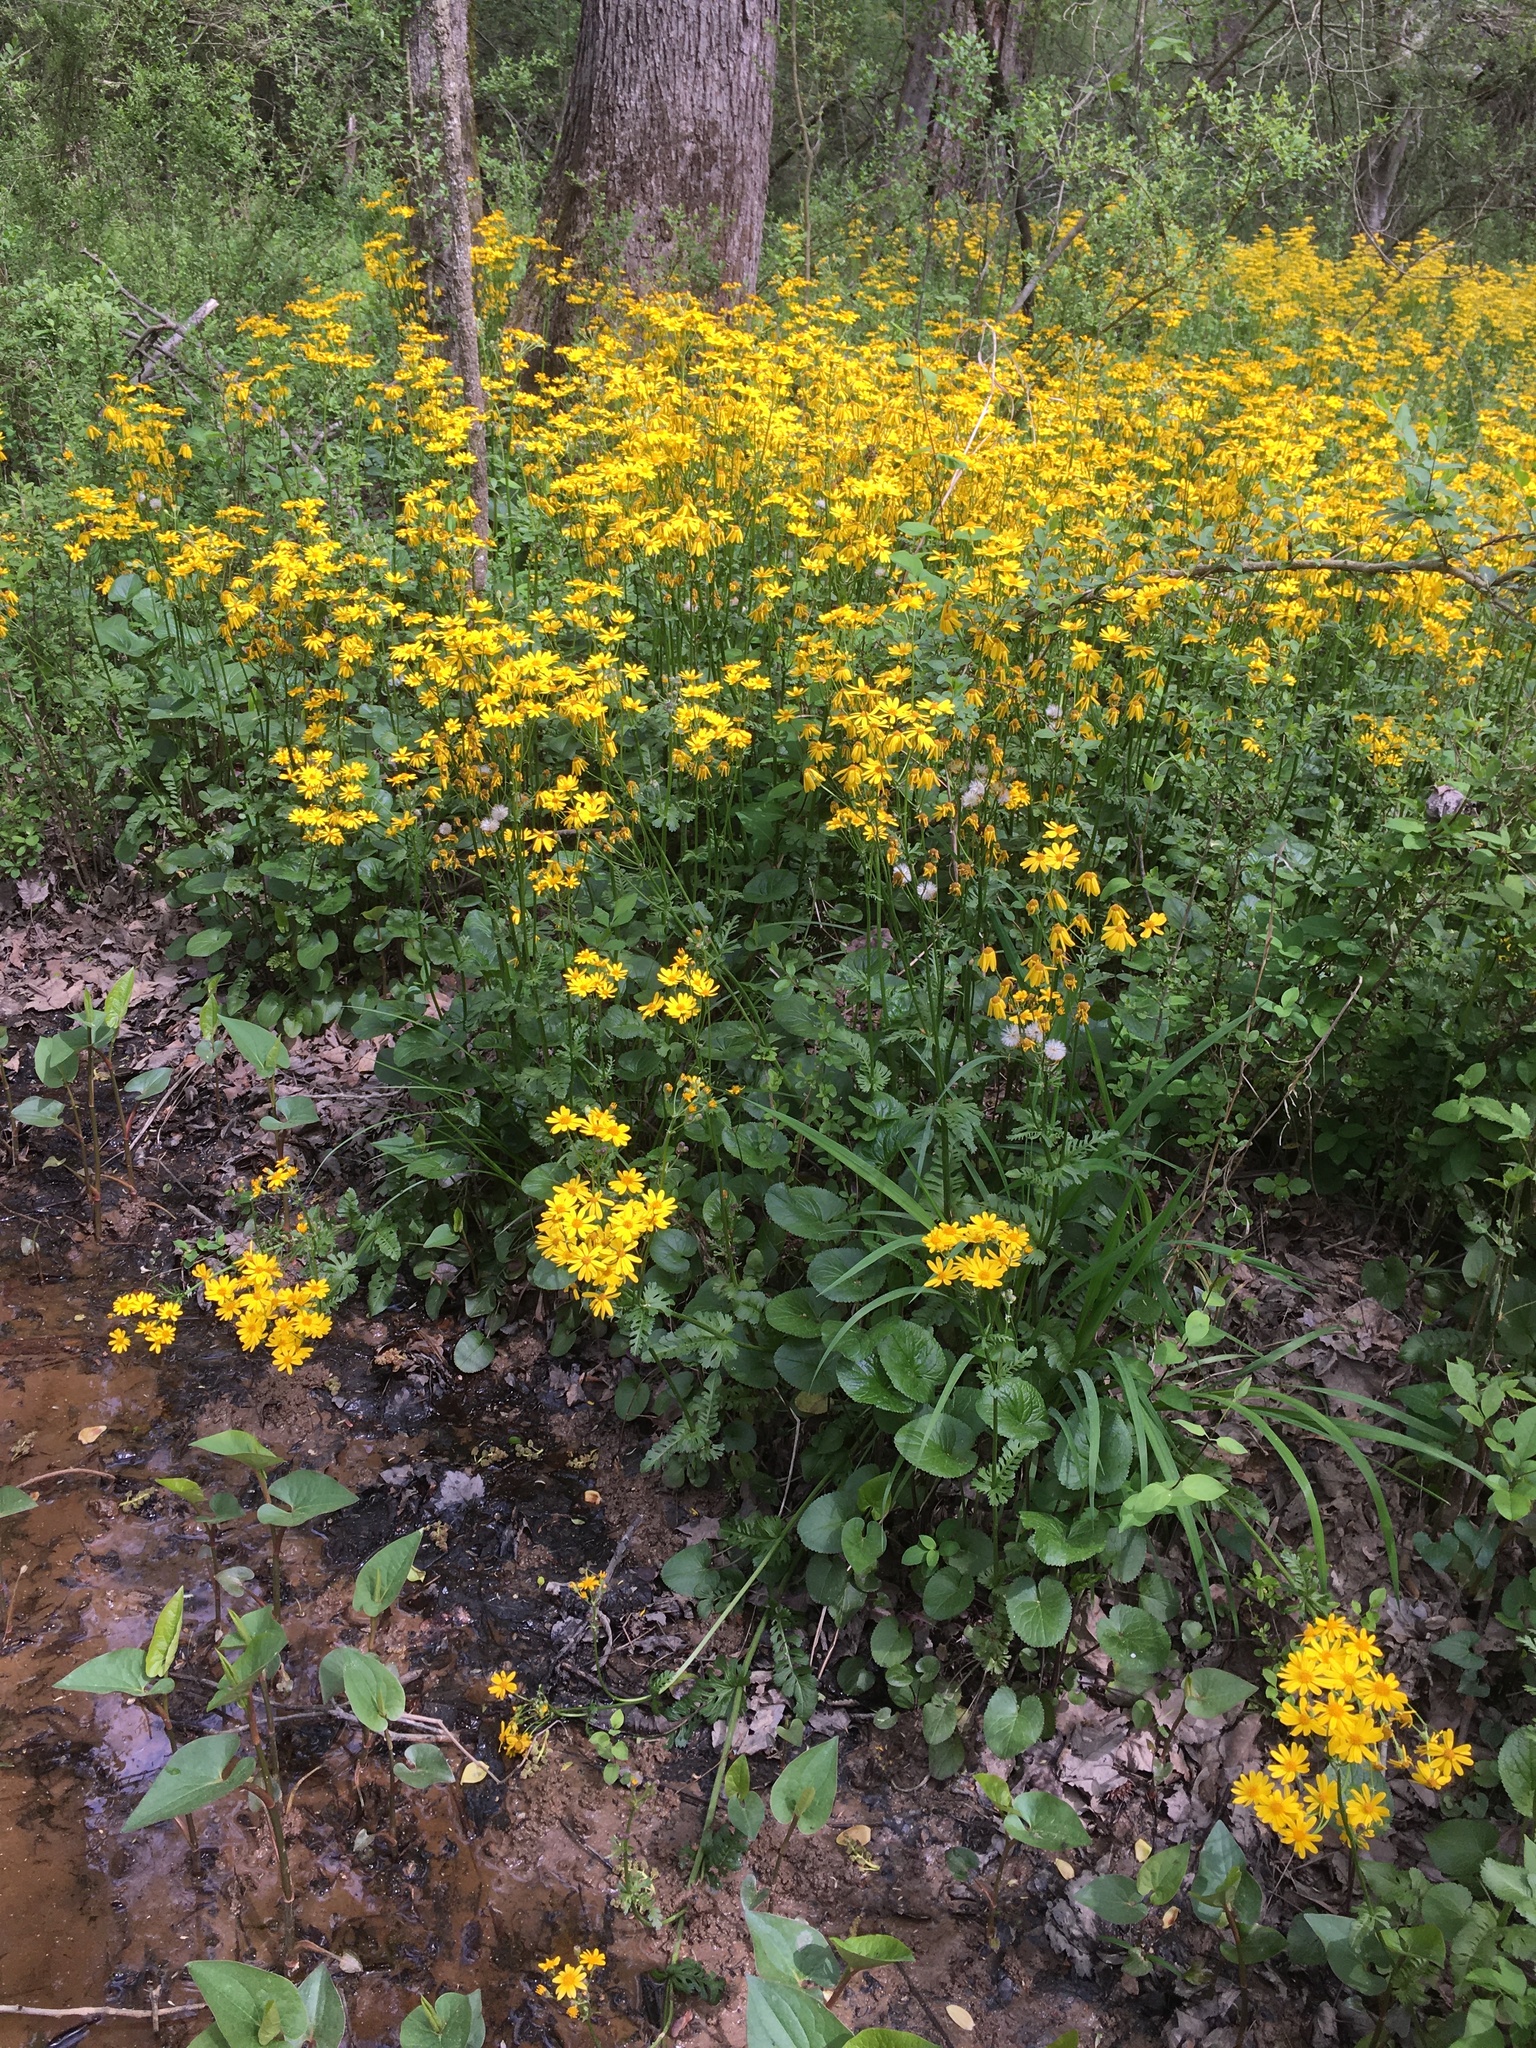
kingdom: Plantae
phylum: Tracheophyta
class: Magnoliopsida
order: Asterales
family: Asteraceae
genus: Packera
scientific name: Packera aurea
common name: Golden groundsel
